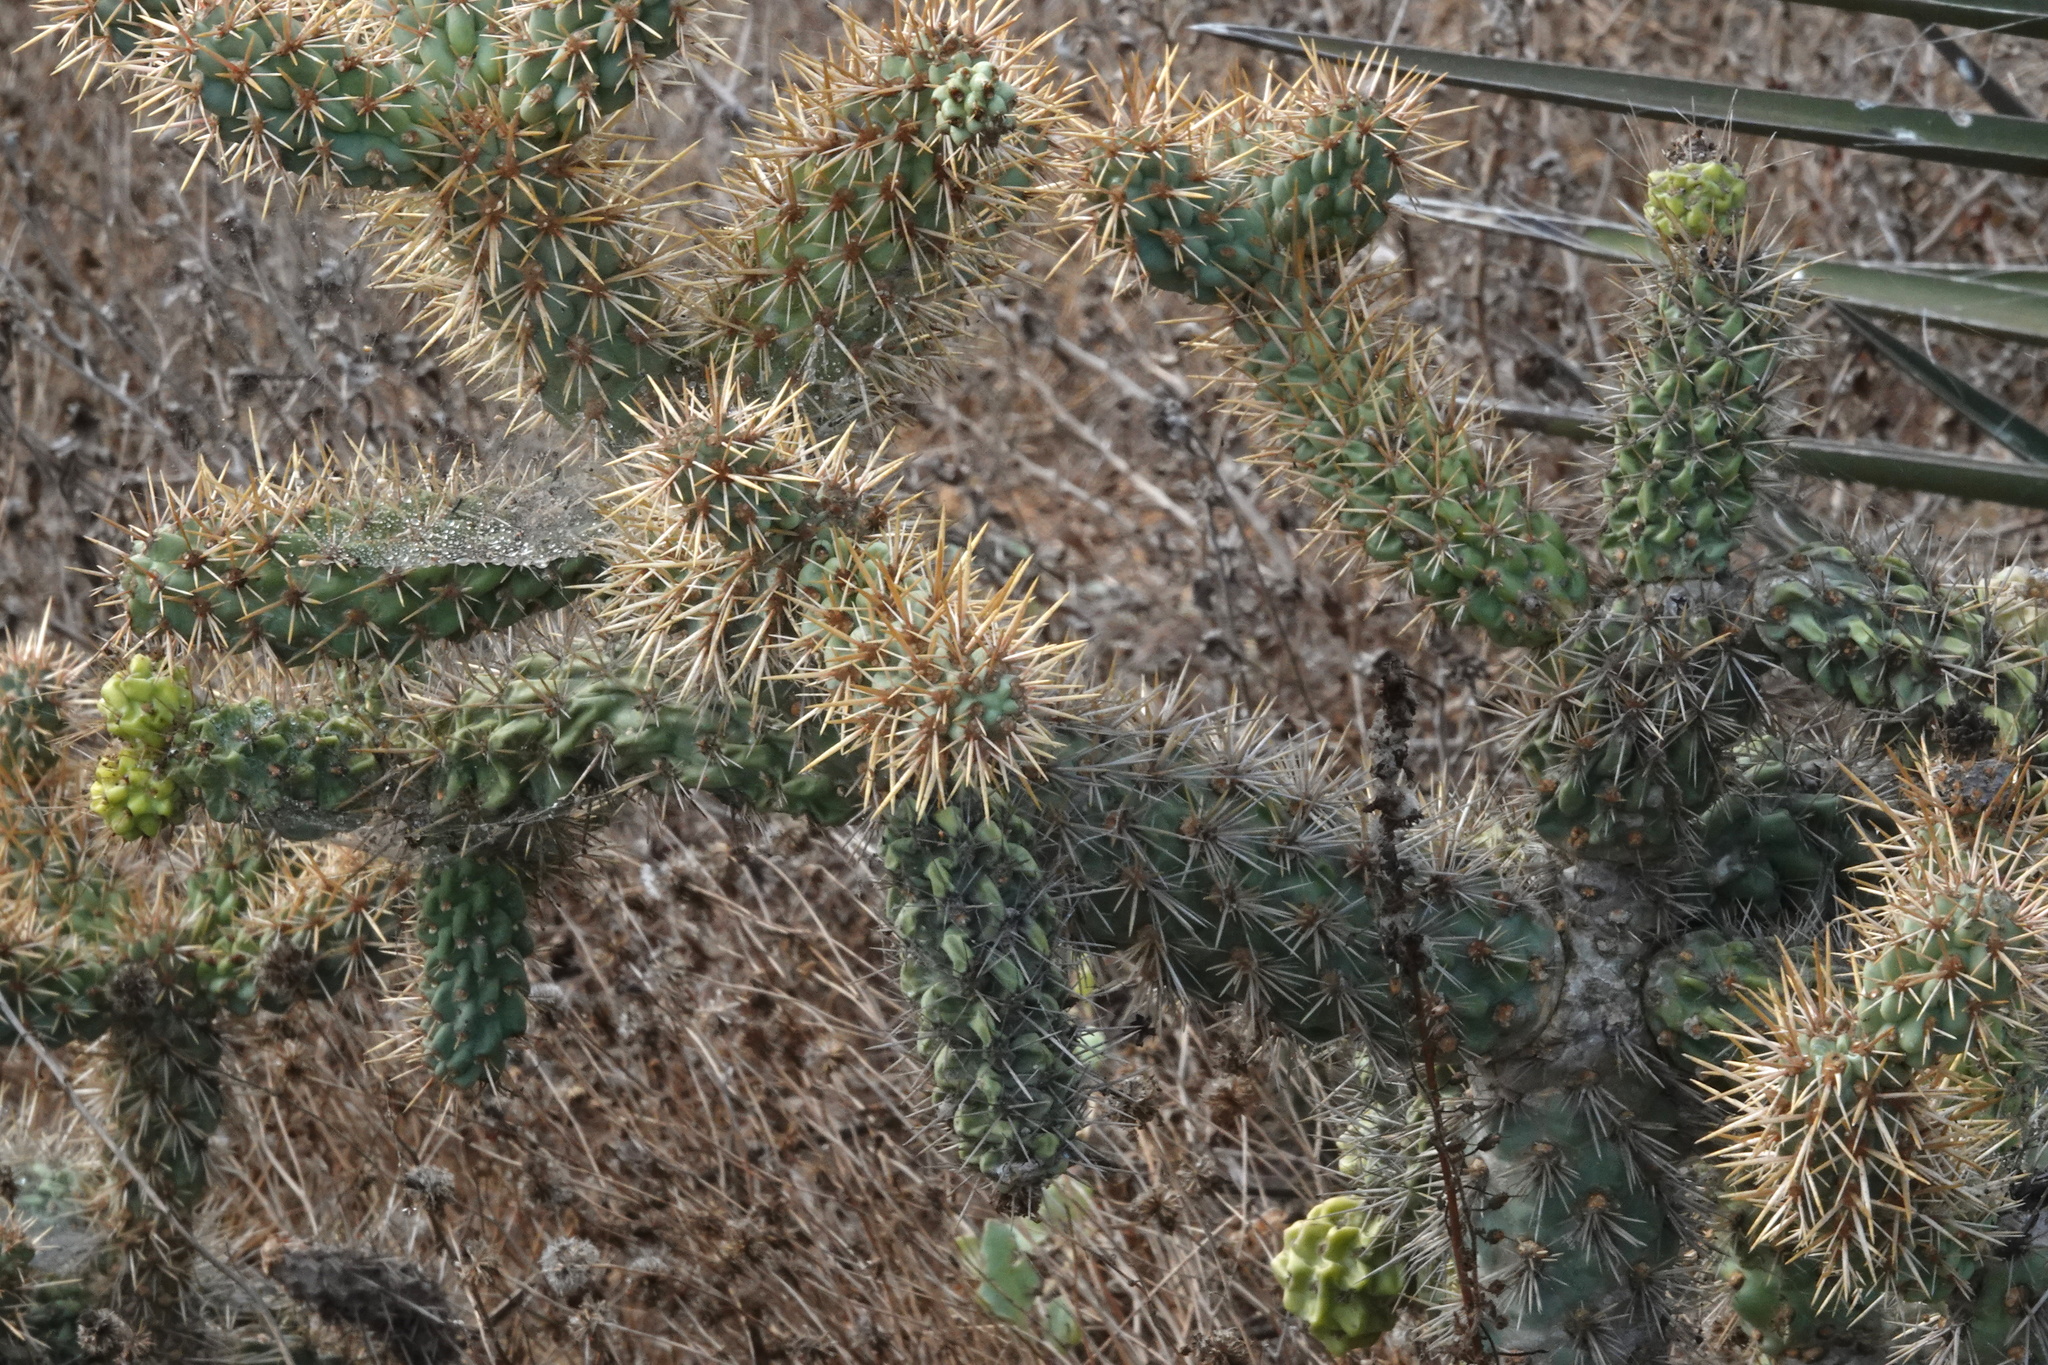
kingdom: Plantae
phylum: Tracheophyta
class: Magnoliopsida
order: Caryophyllales
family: Cactaceae
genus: Cylindropuntia
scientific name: Cylindropuntia prolifera
